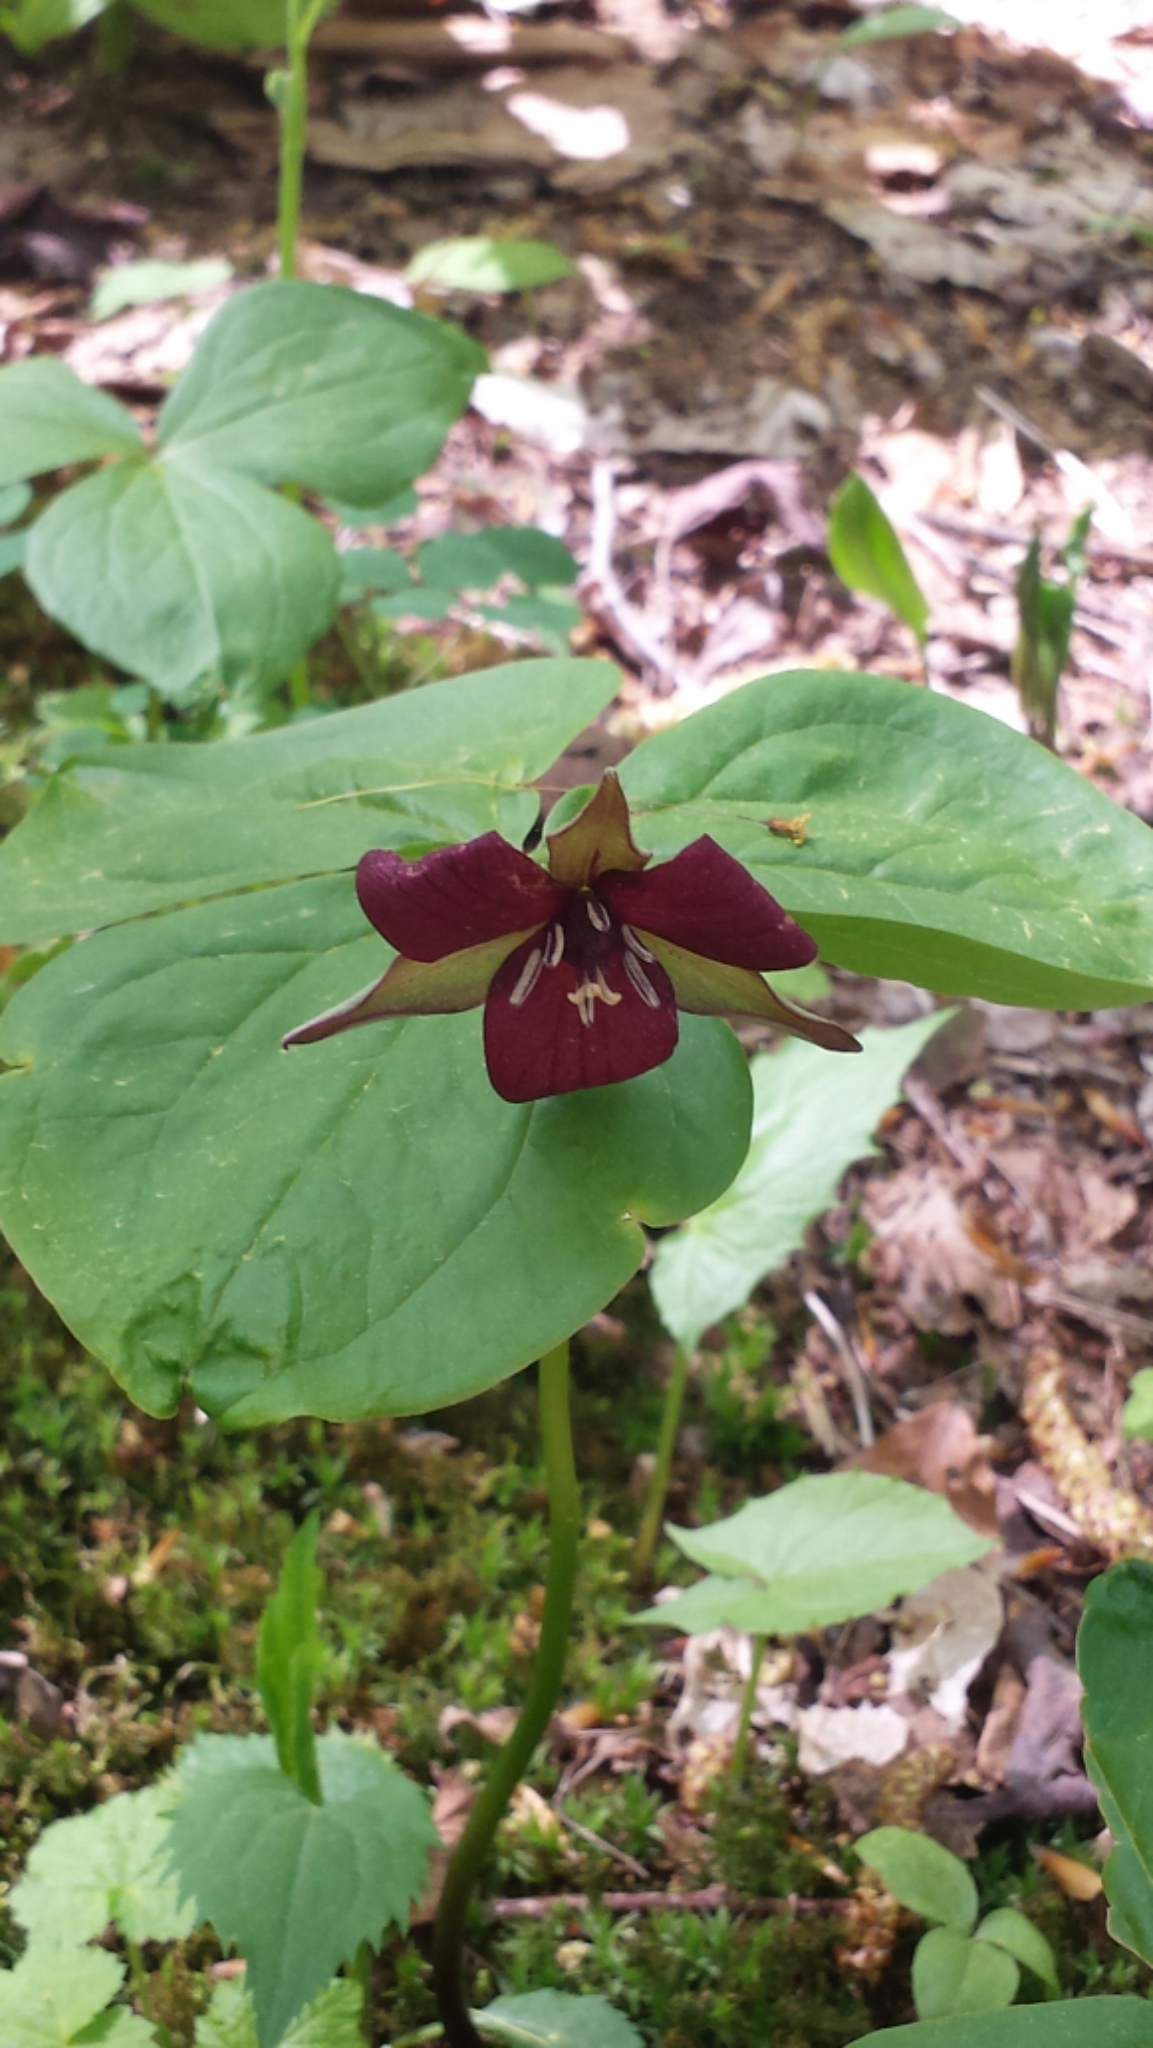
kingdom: Plantae
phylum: Tracheophyta
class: Liliopsida
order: Liliales
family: Melanthiaceae
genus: Trillium
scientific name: Trillium erectum
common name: Purple trillium
